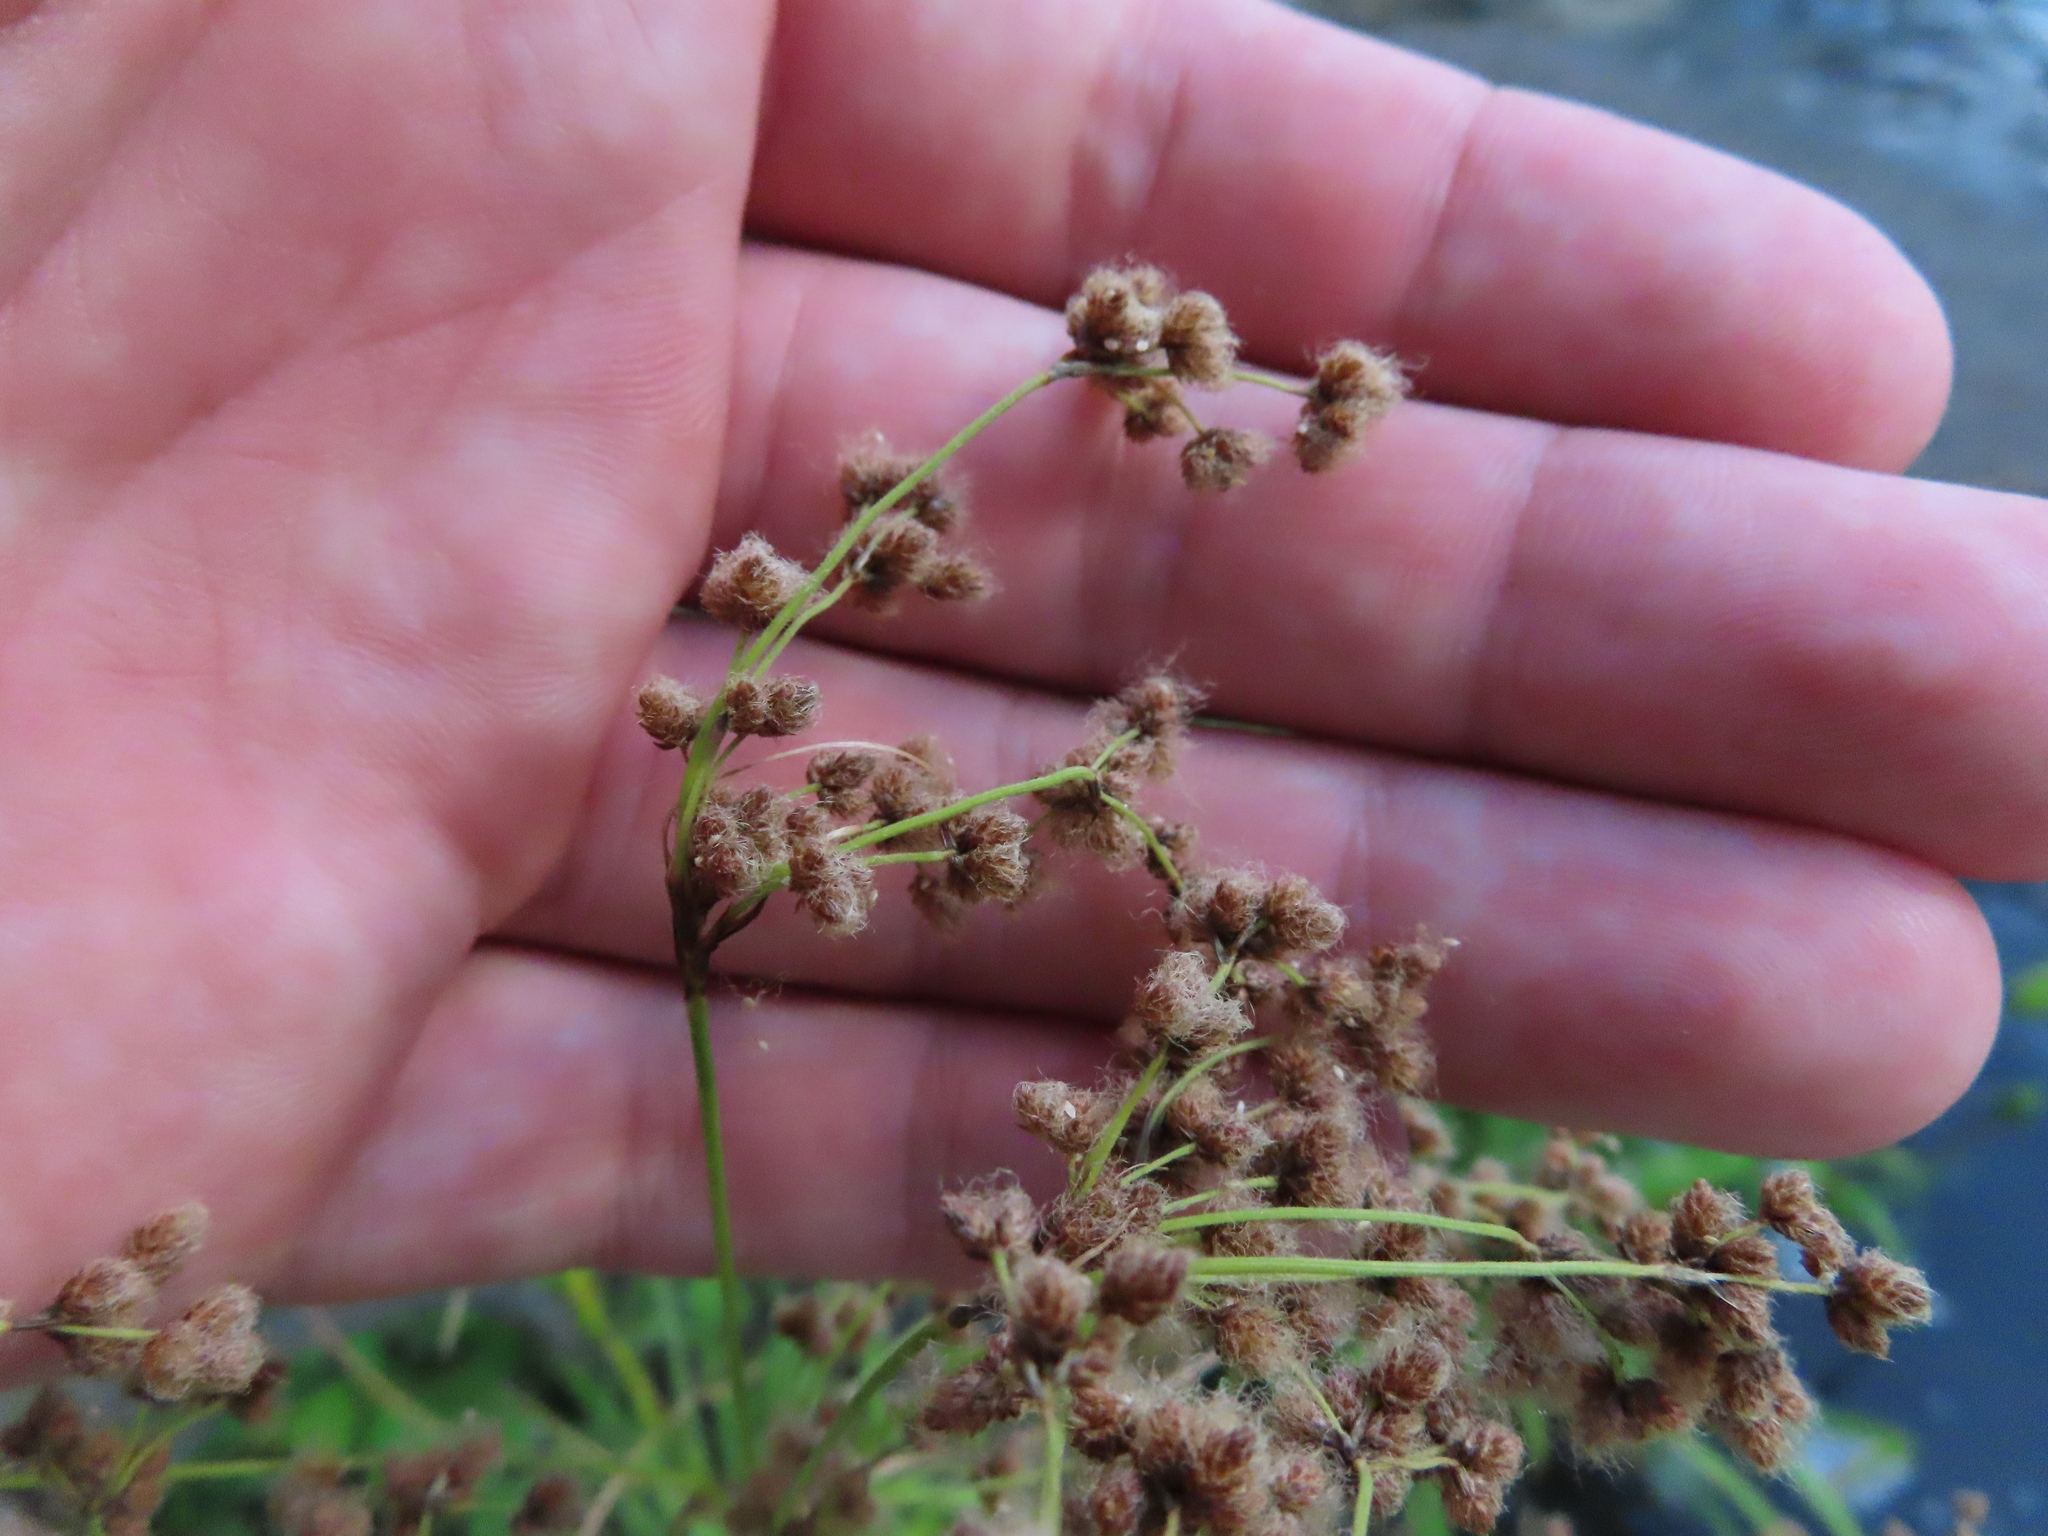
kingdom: Plantae
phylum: Tracheophyta
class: Liliopsida
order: Poales
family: Cyperaceae
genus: Scirpus
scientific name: Scirpus cyperinus
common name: Black-sheathed bulrush
